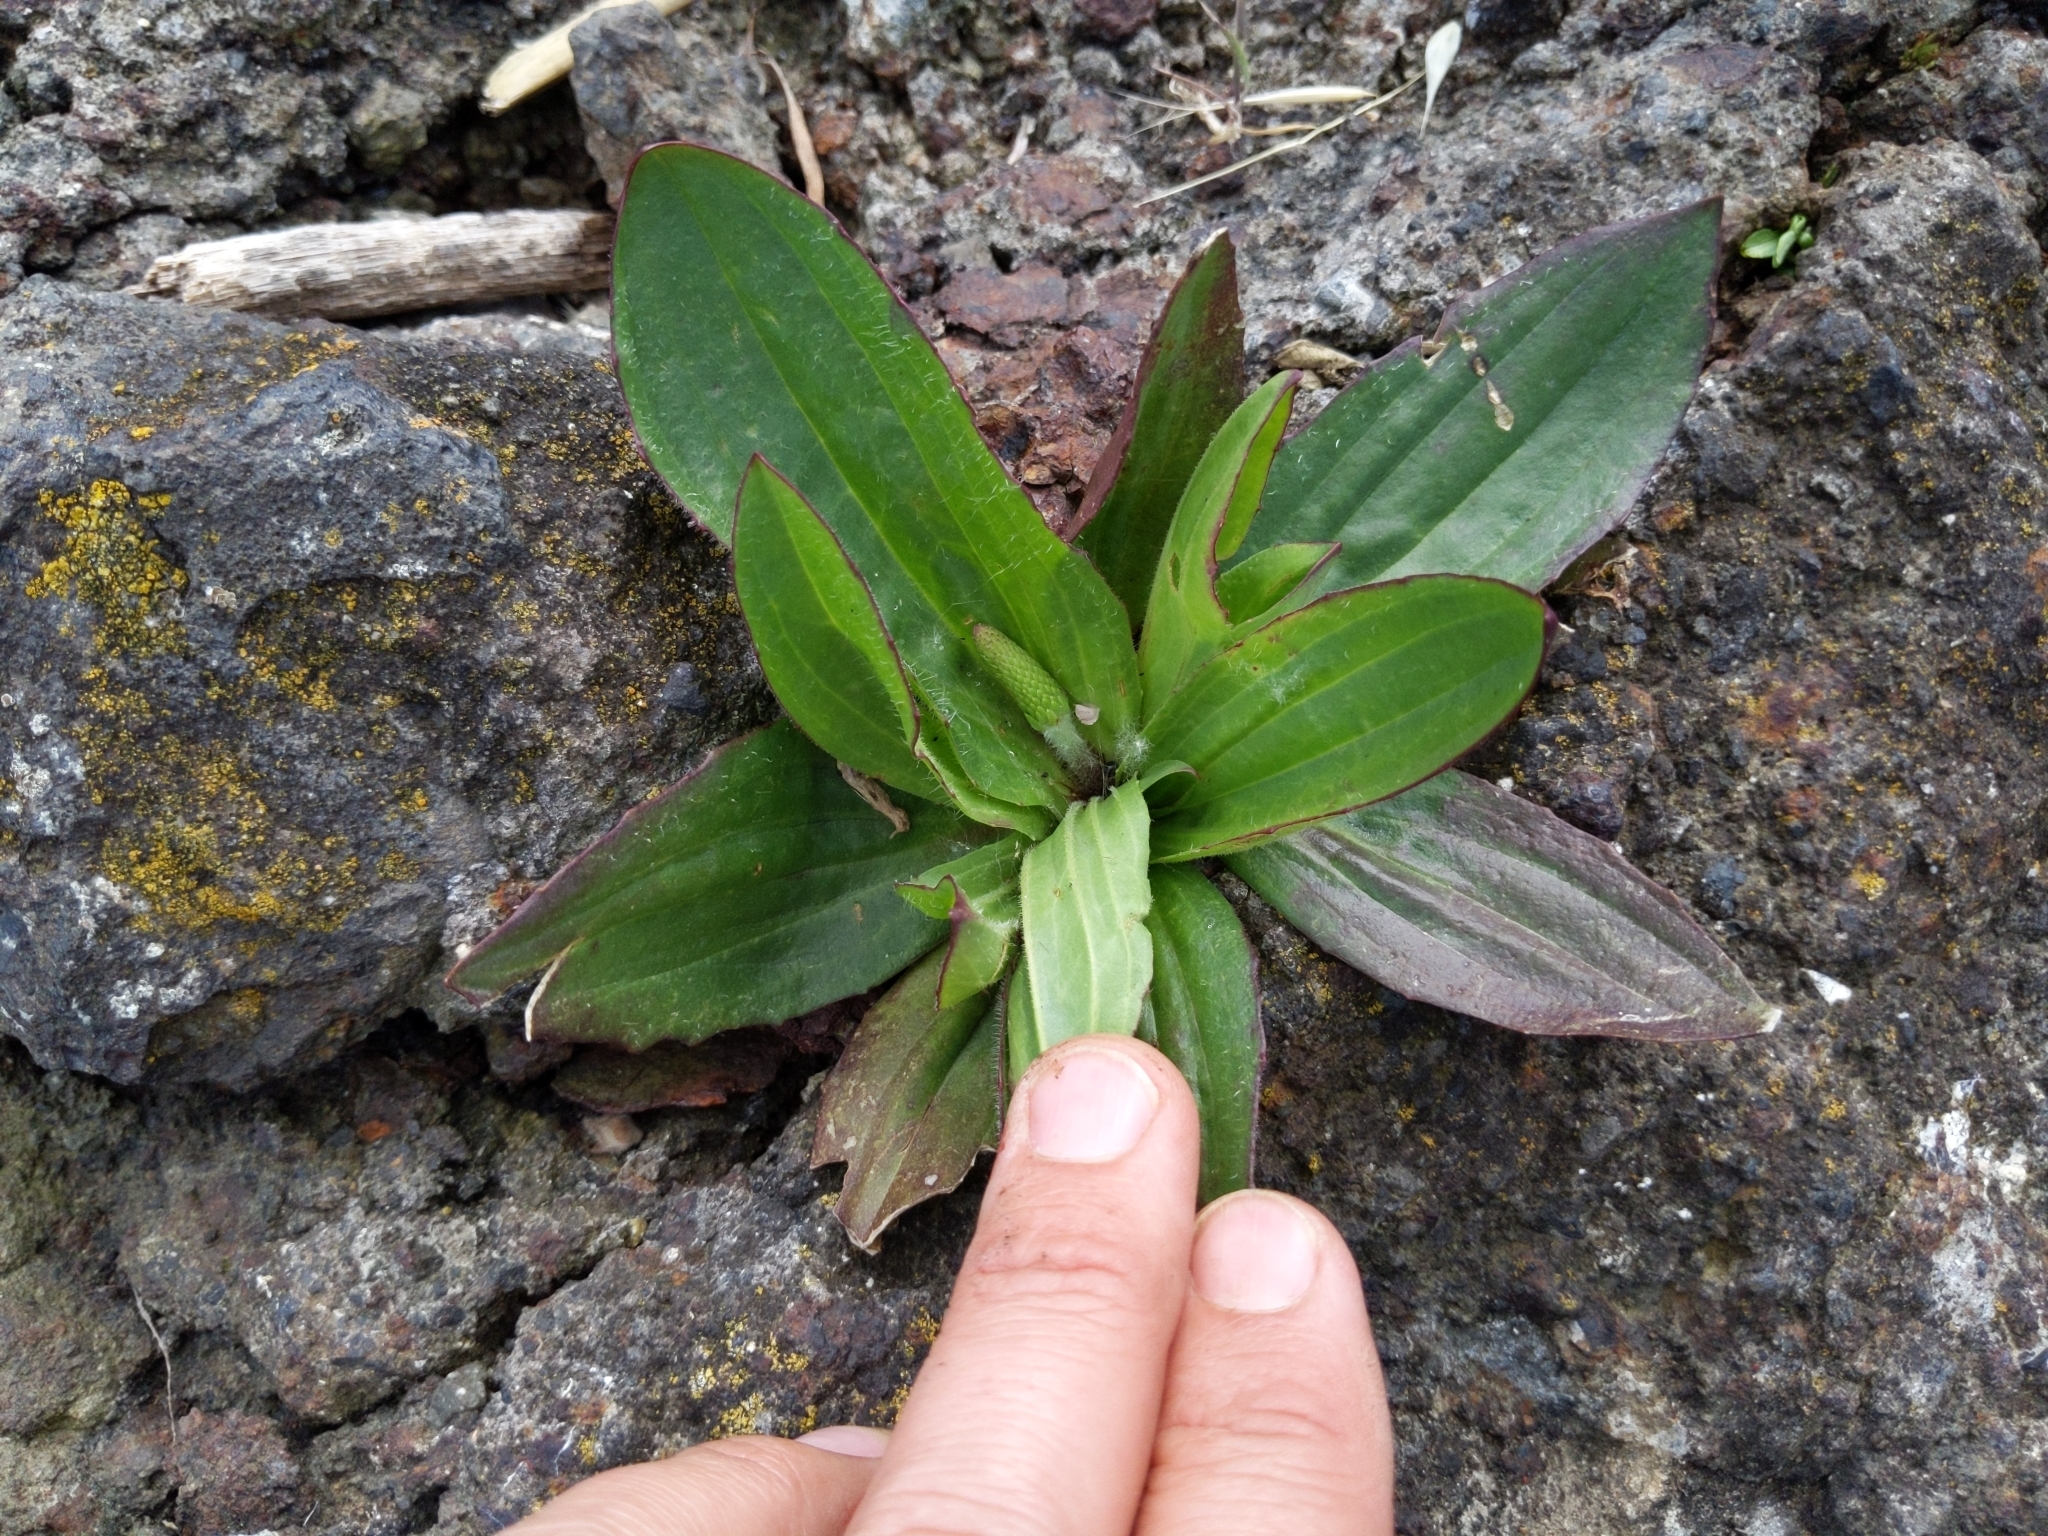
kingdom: Plantae
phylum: Tracheophyta
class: Magnoliopsida
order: Lamiales
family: Plantaginaceae
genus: Plantago
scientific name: Plantago subnuda
